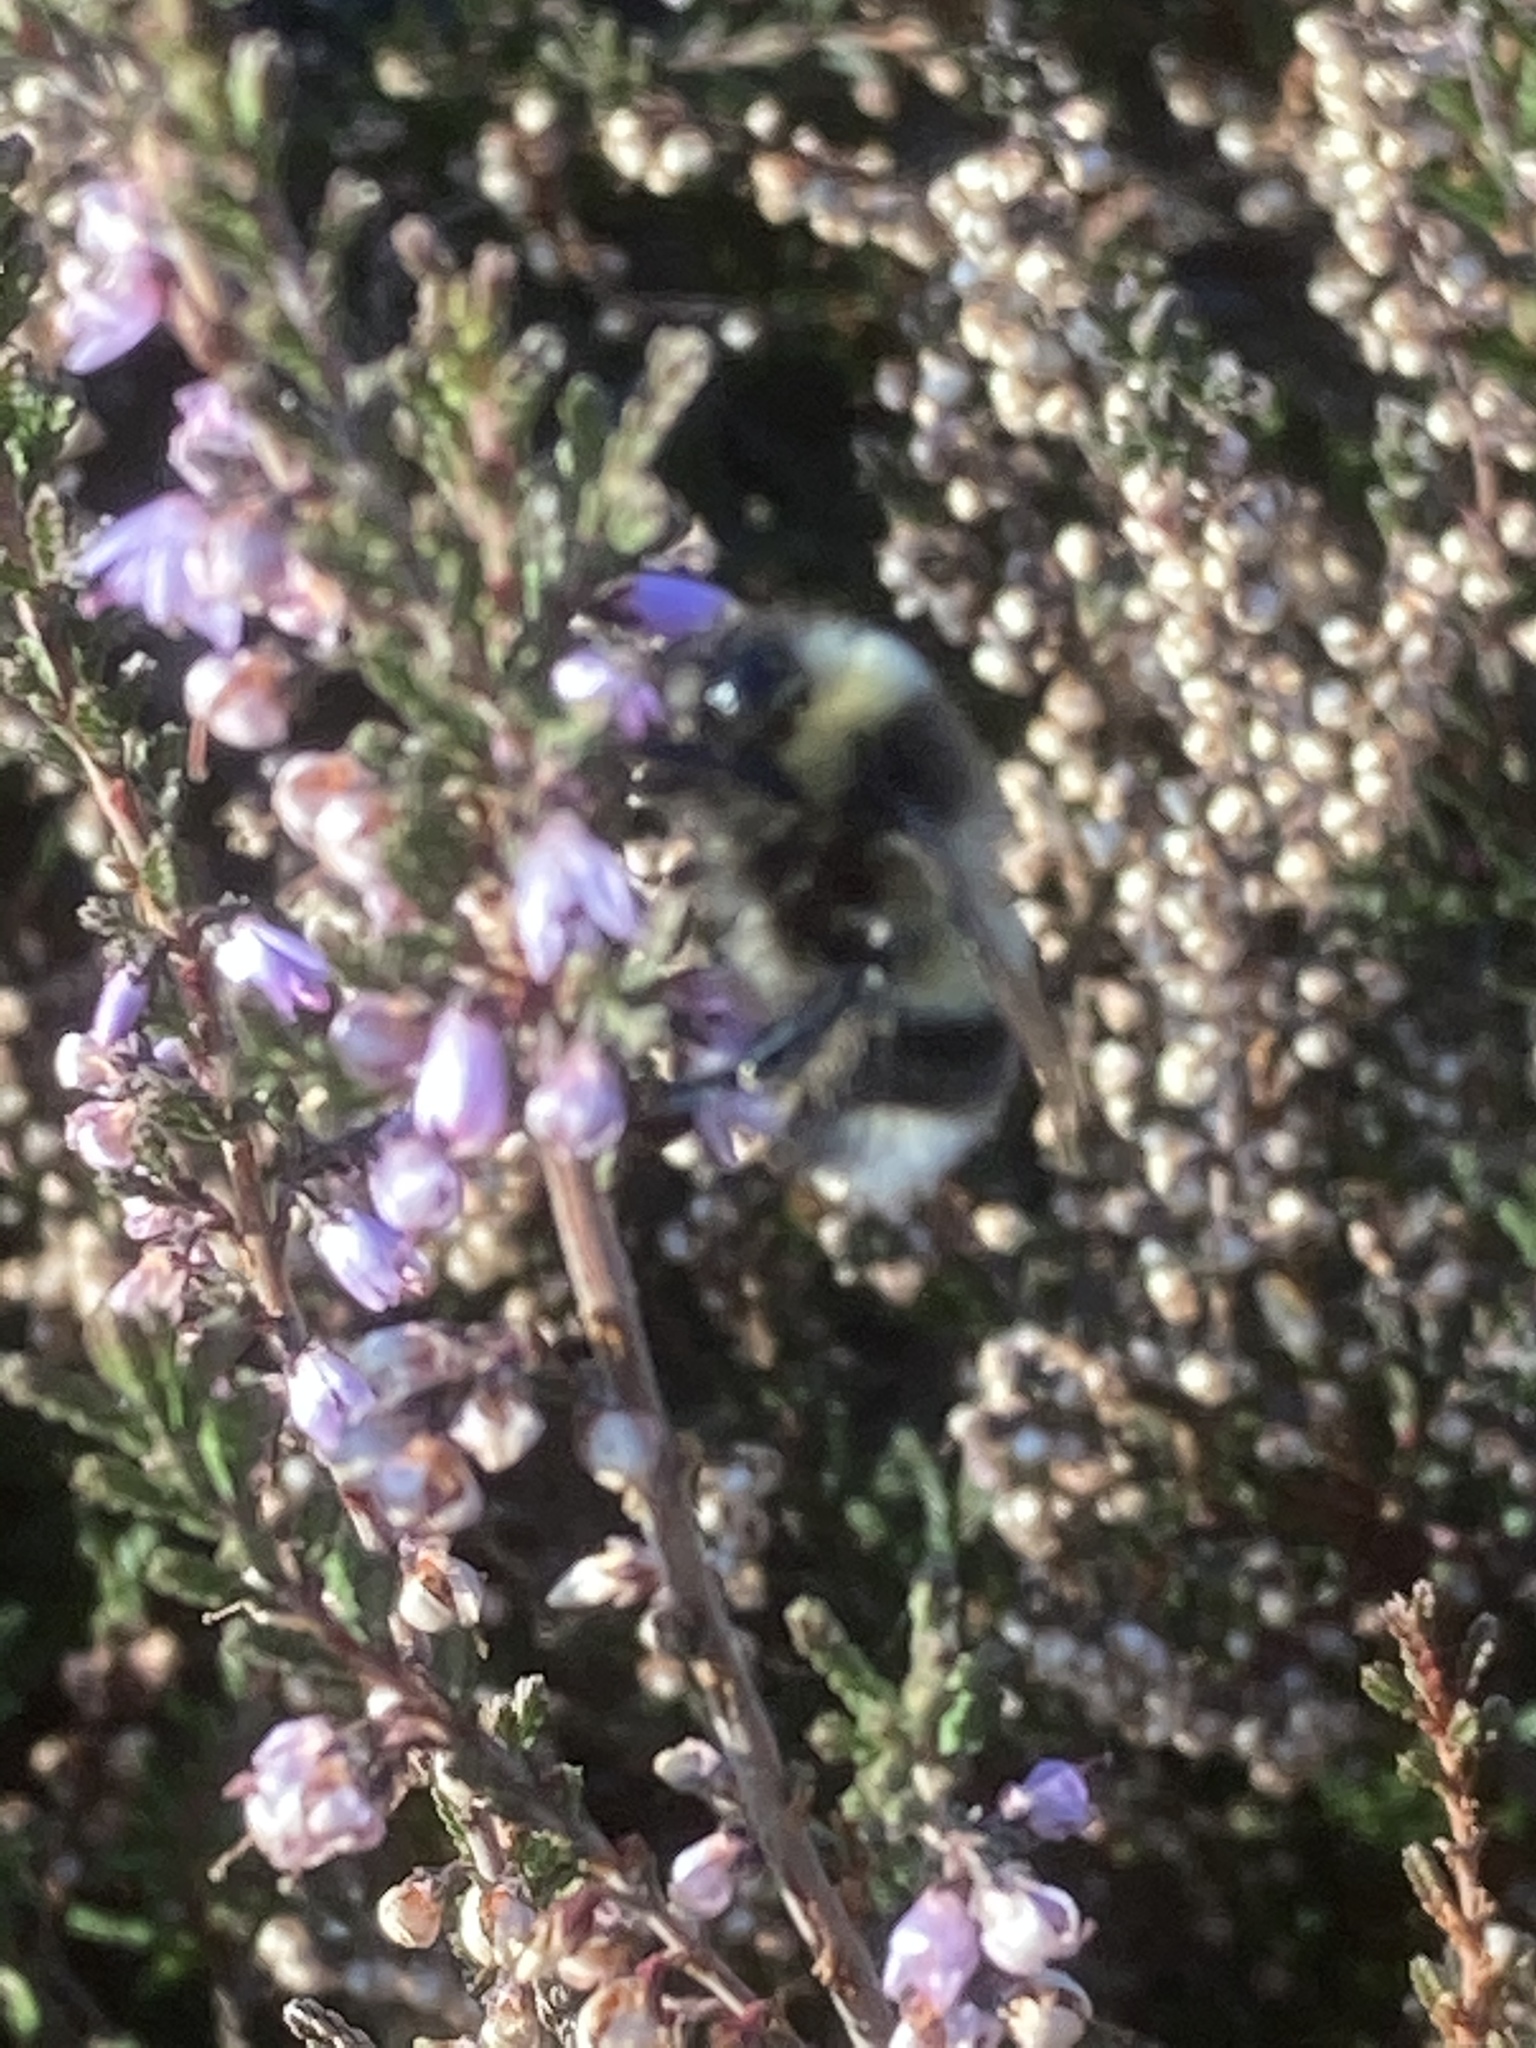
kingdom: Plantae
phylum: Tracheophyta
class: Magnoliopsida
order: Ericales
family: Ericaceae
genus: Calluna
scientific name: Calluna vulgaris
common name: Heather
